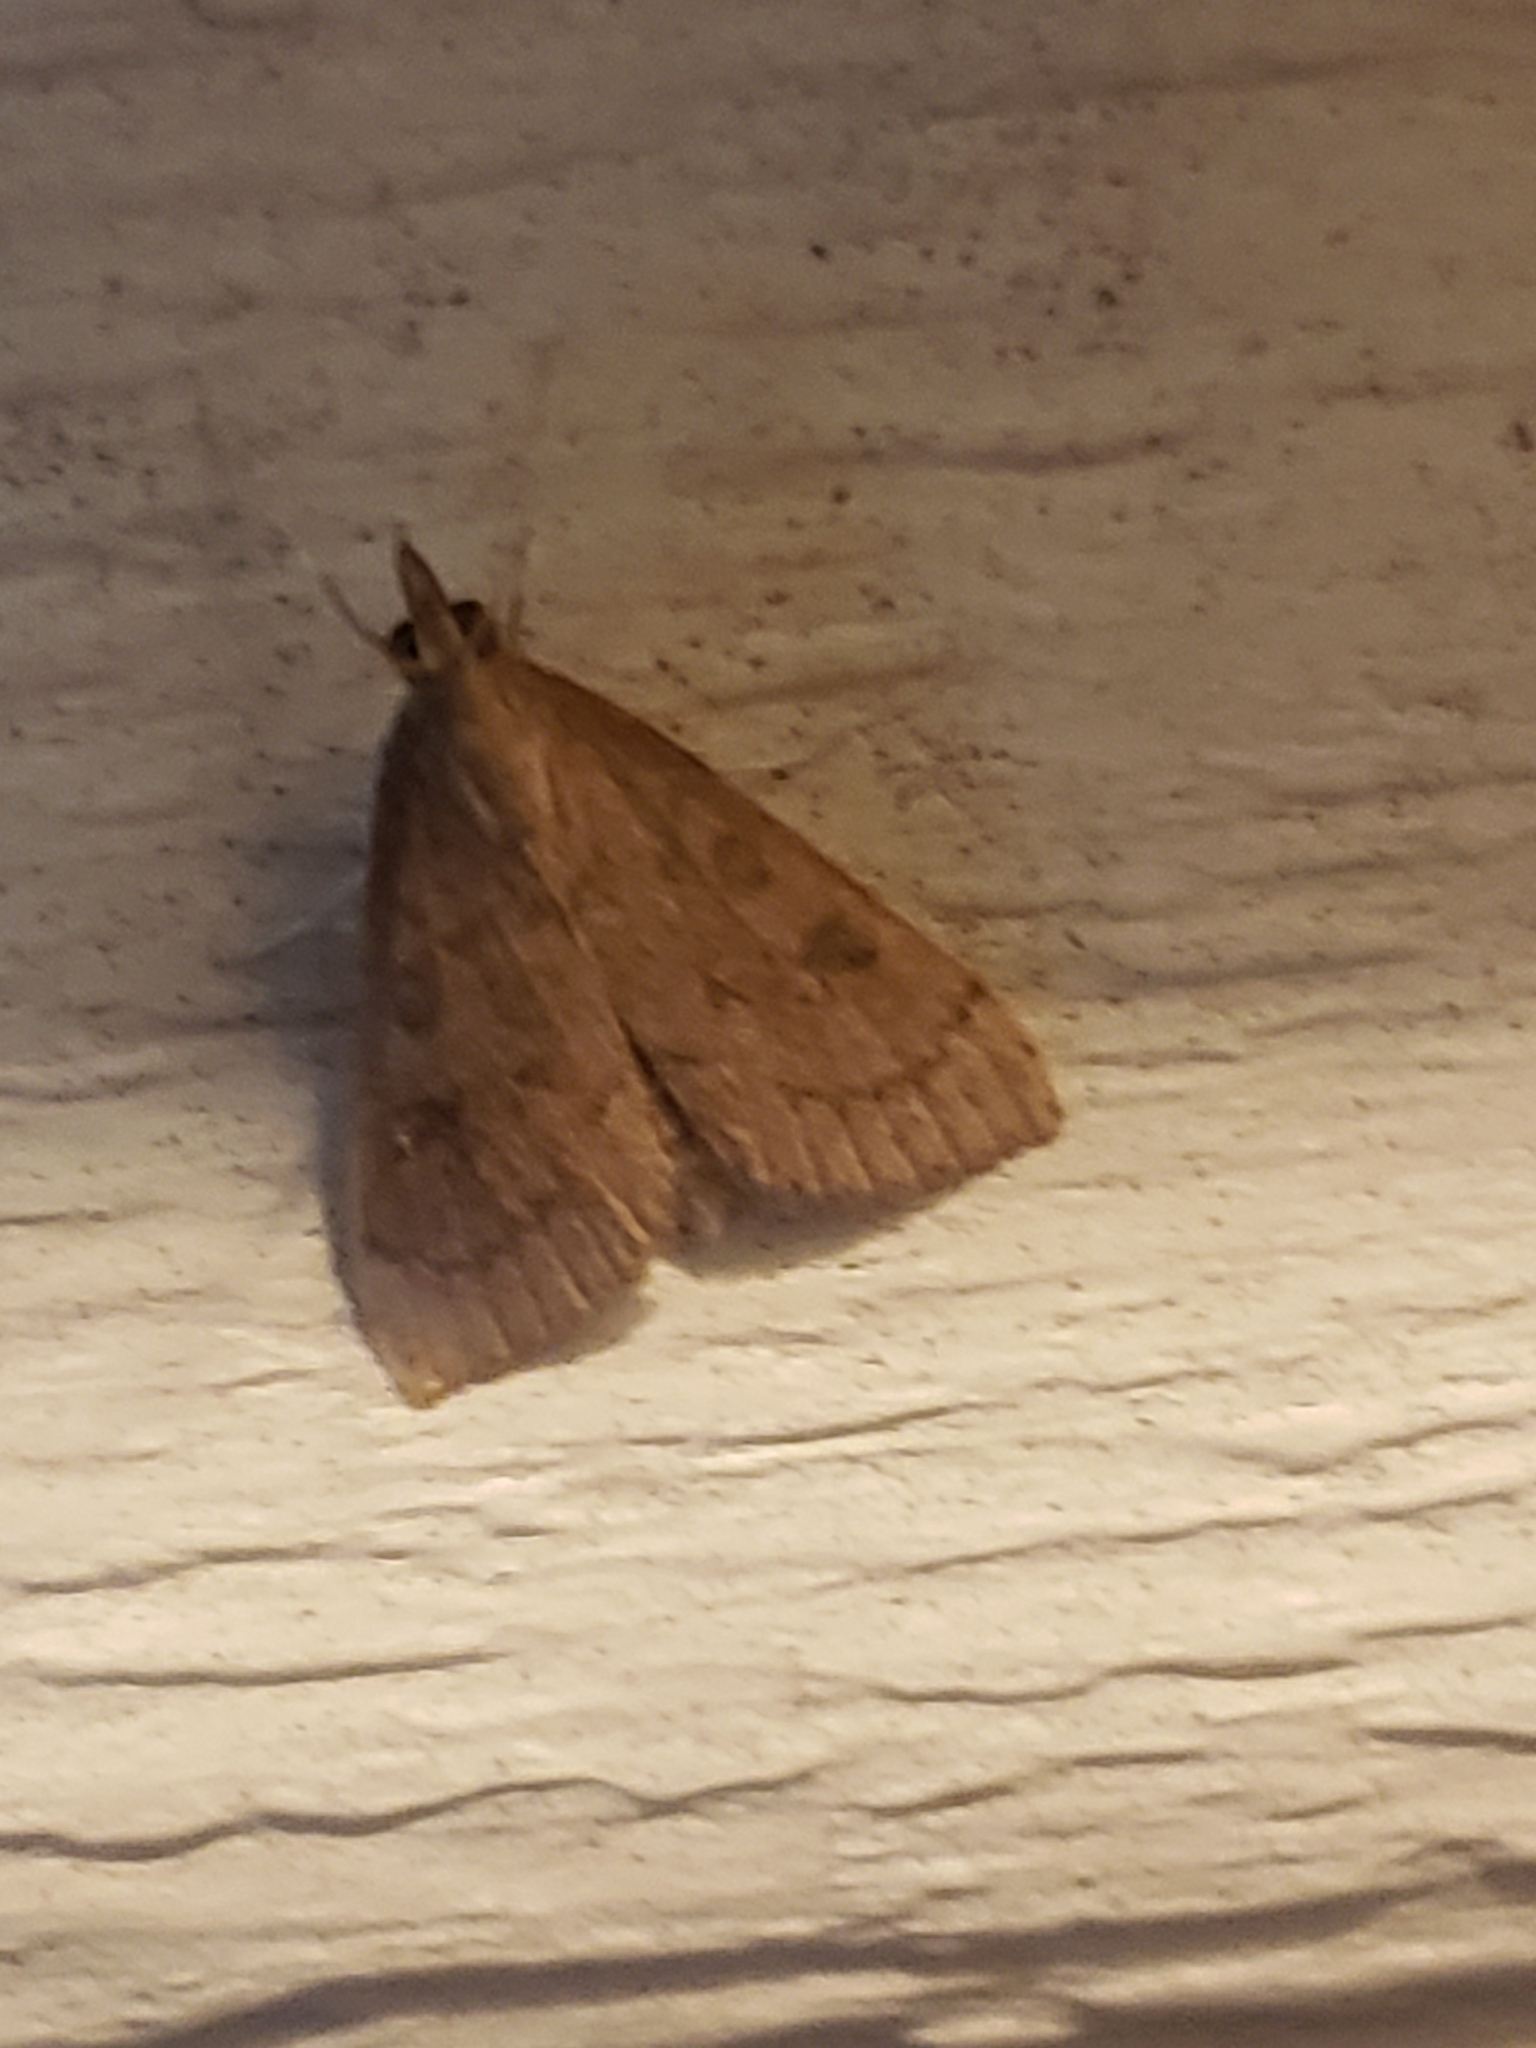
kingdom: Animalia
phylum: Arthropoda
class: Insecta
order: Lepidoptera
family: Crambidae
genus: Udea
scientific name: Udea rubigalis
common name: Celery leaftier moth
